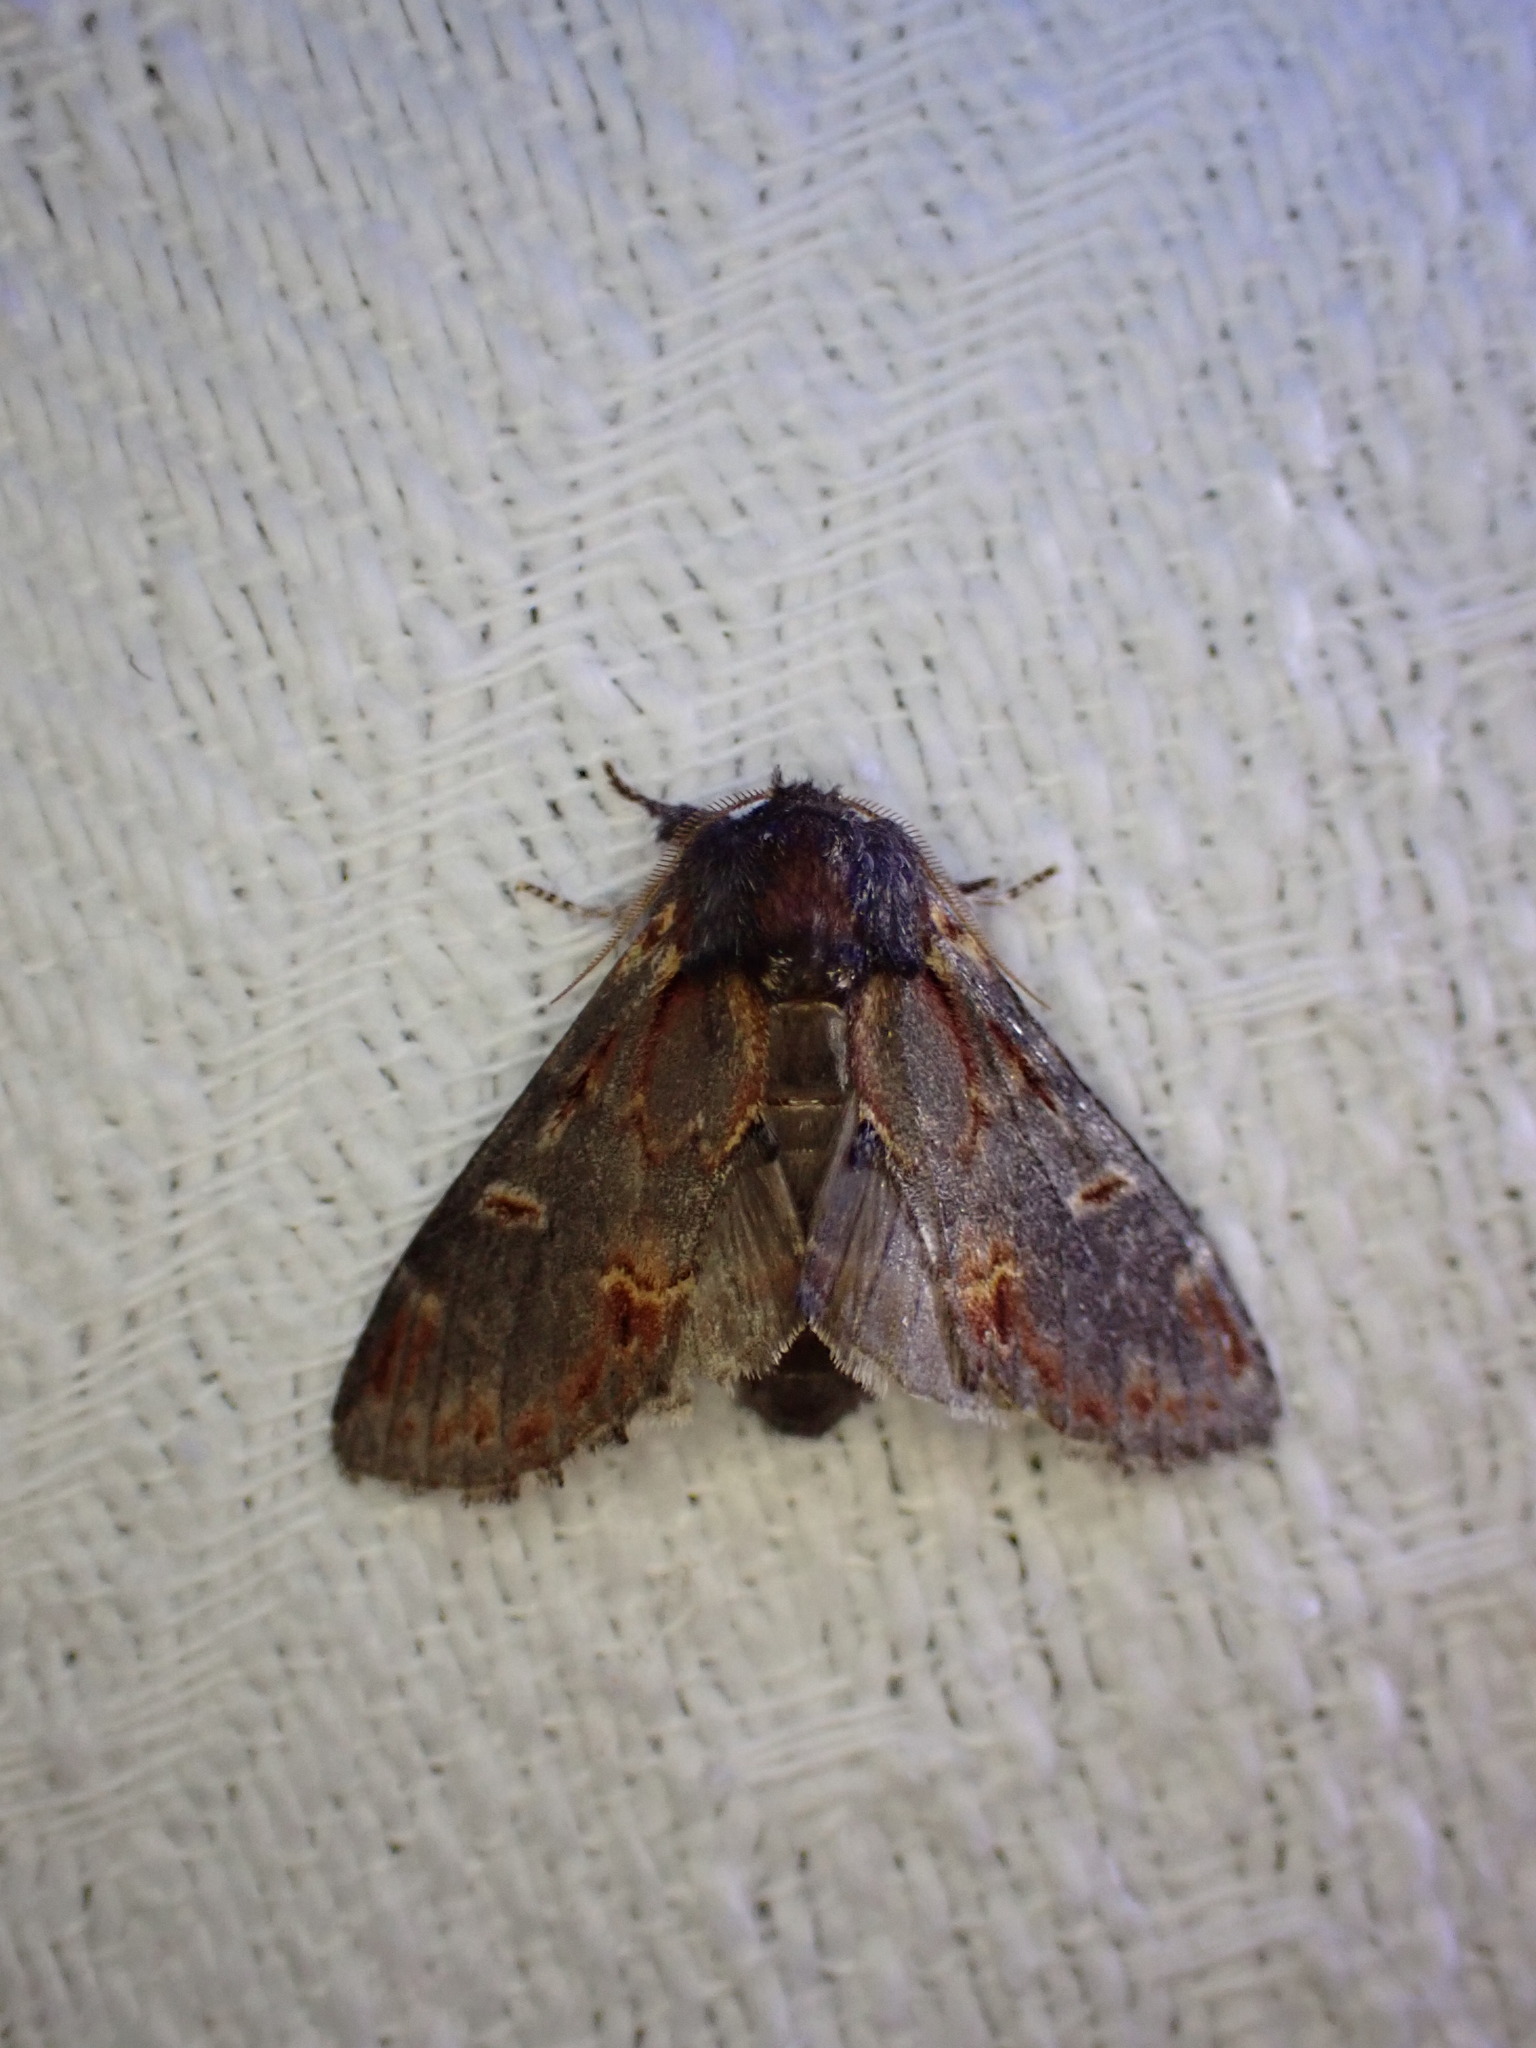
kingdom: Animalia
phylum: Arthropoda
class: Insecta
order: Lepidoptera
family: Notodontidae
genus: Notodonta
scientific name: Notodonta dromedarius
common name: Iron prominent
